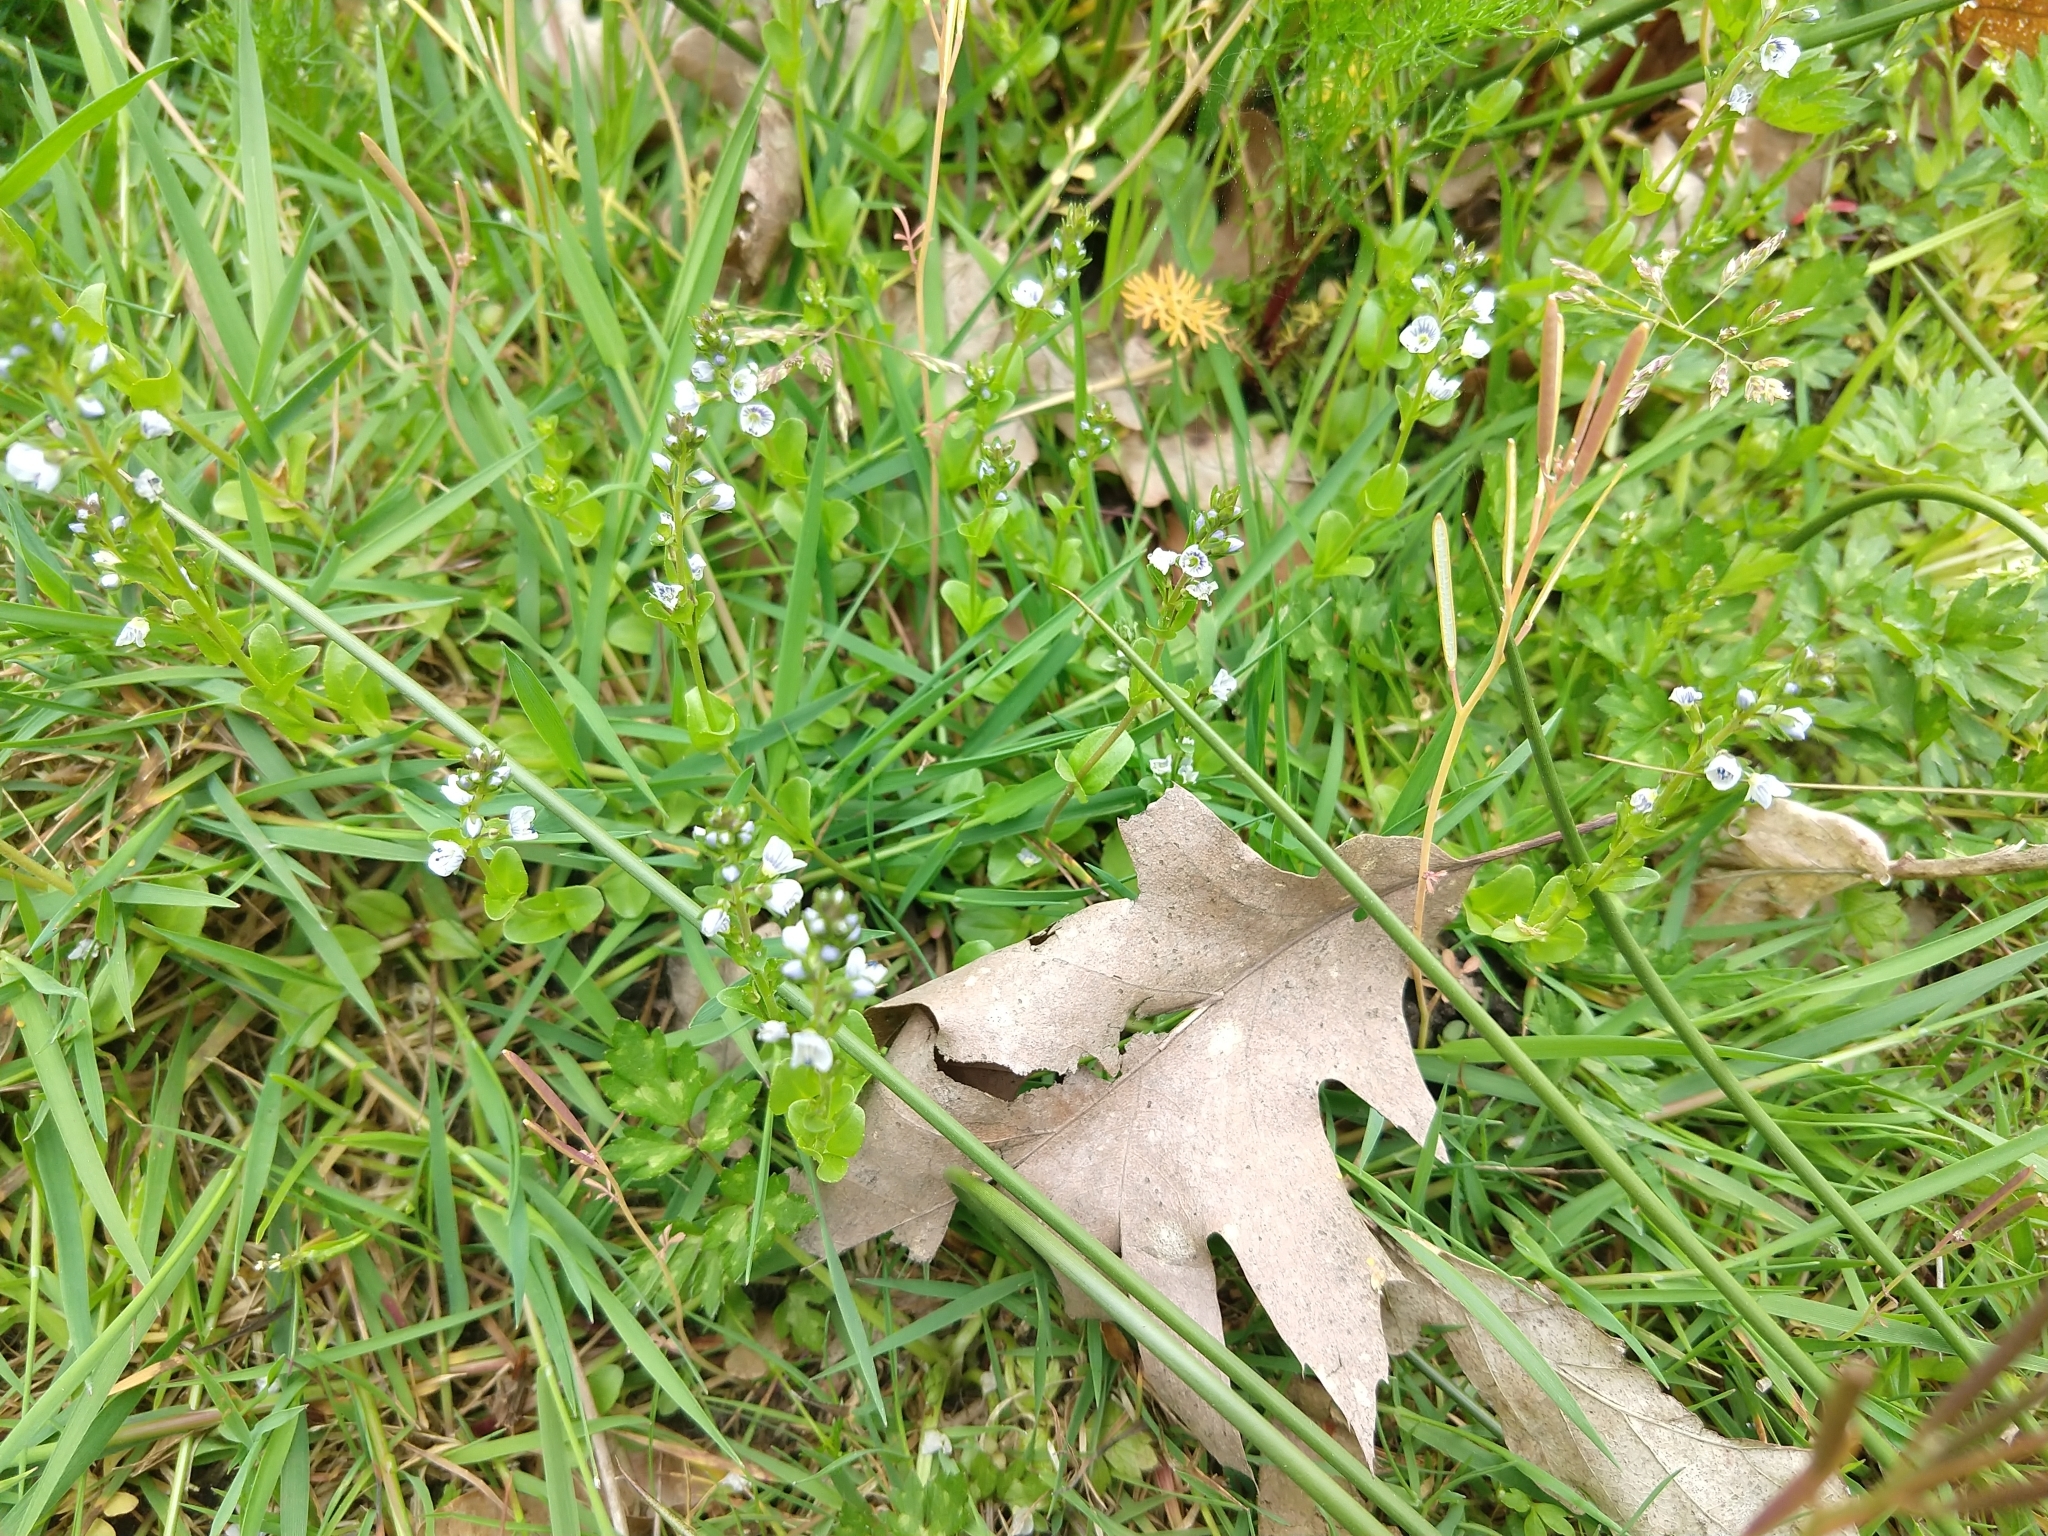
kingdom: Plantae
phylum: Tracheophyta
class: Magnoliopsida
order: Lamiales
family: Plantaginaceae
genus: Veronica
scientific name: Veronica serpyllifolia
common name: Thyme-leaved speedwell
